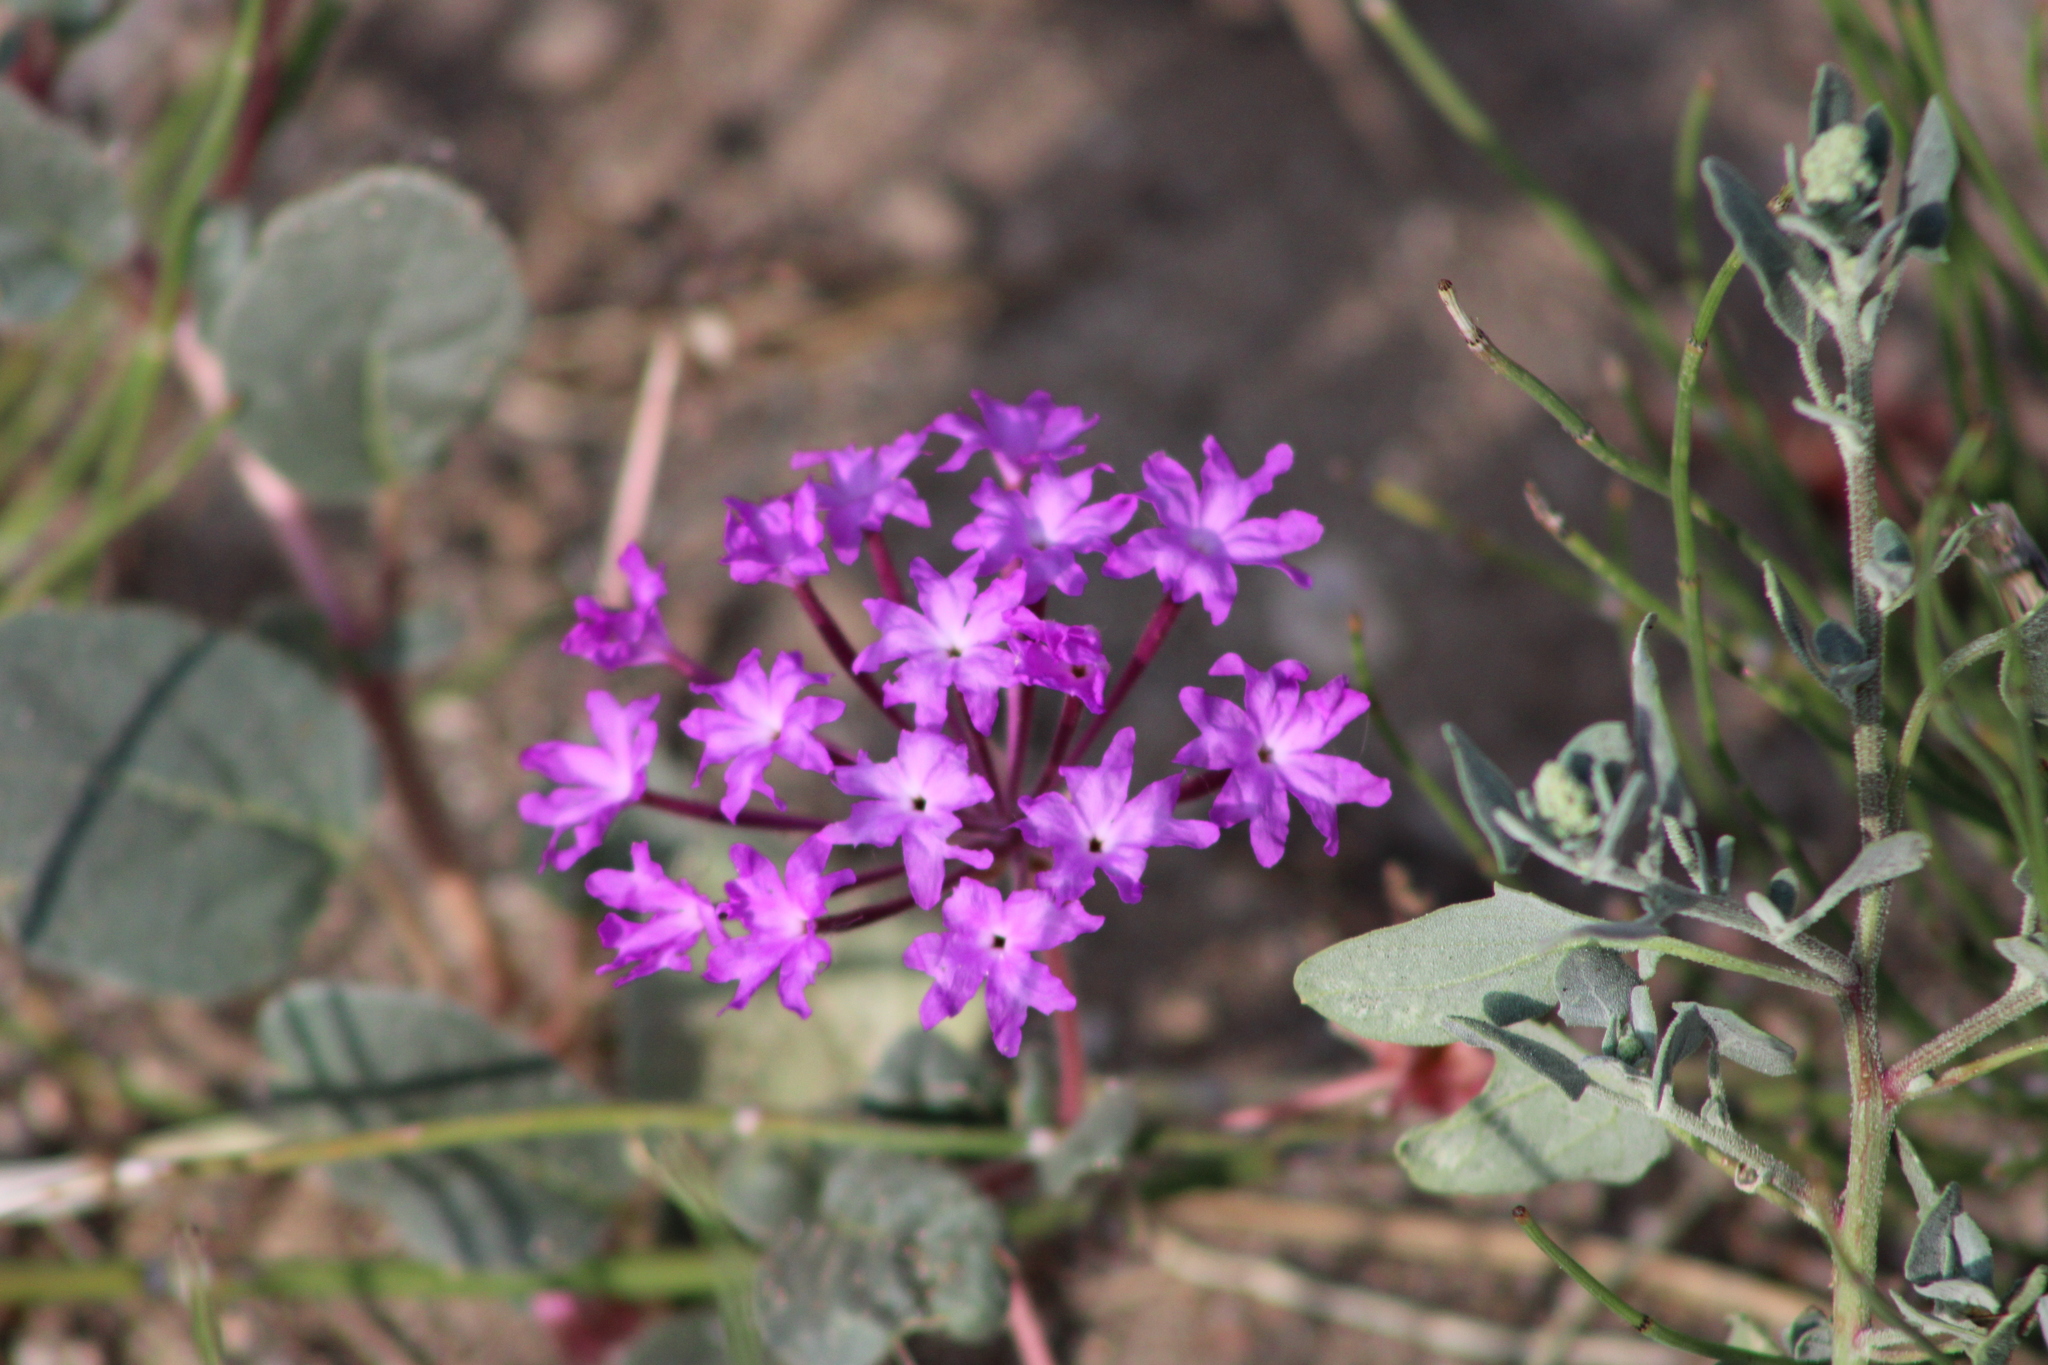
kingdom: Plantae
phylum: Tracheophyta
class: Magnoliopsida
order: Caryophyllales
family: Nyctaginaceae
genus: Abronia
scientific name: Abronia villosa
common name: Desert sand-verbena
